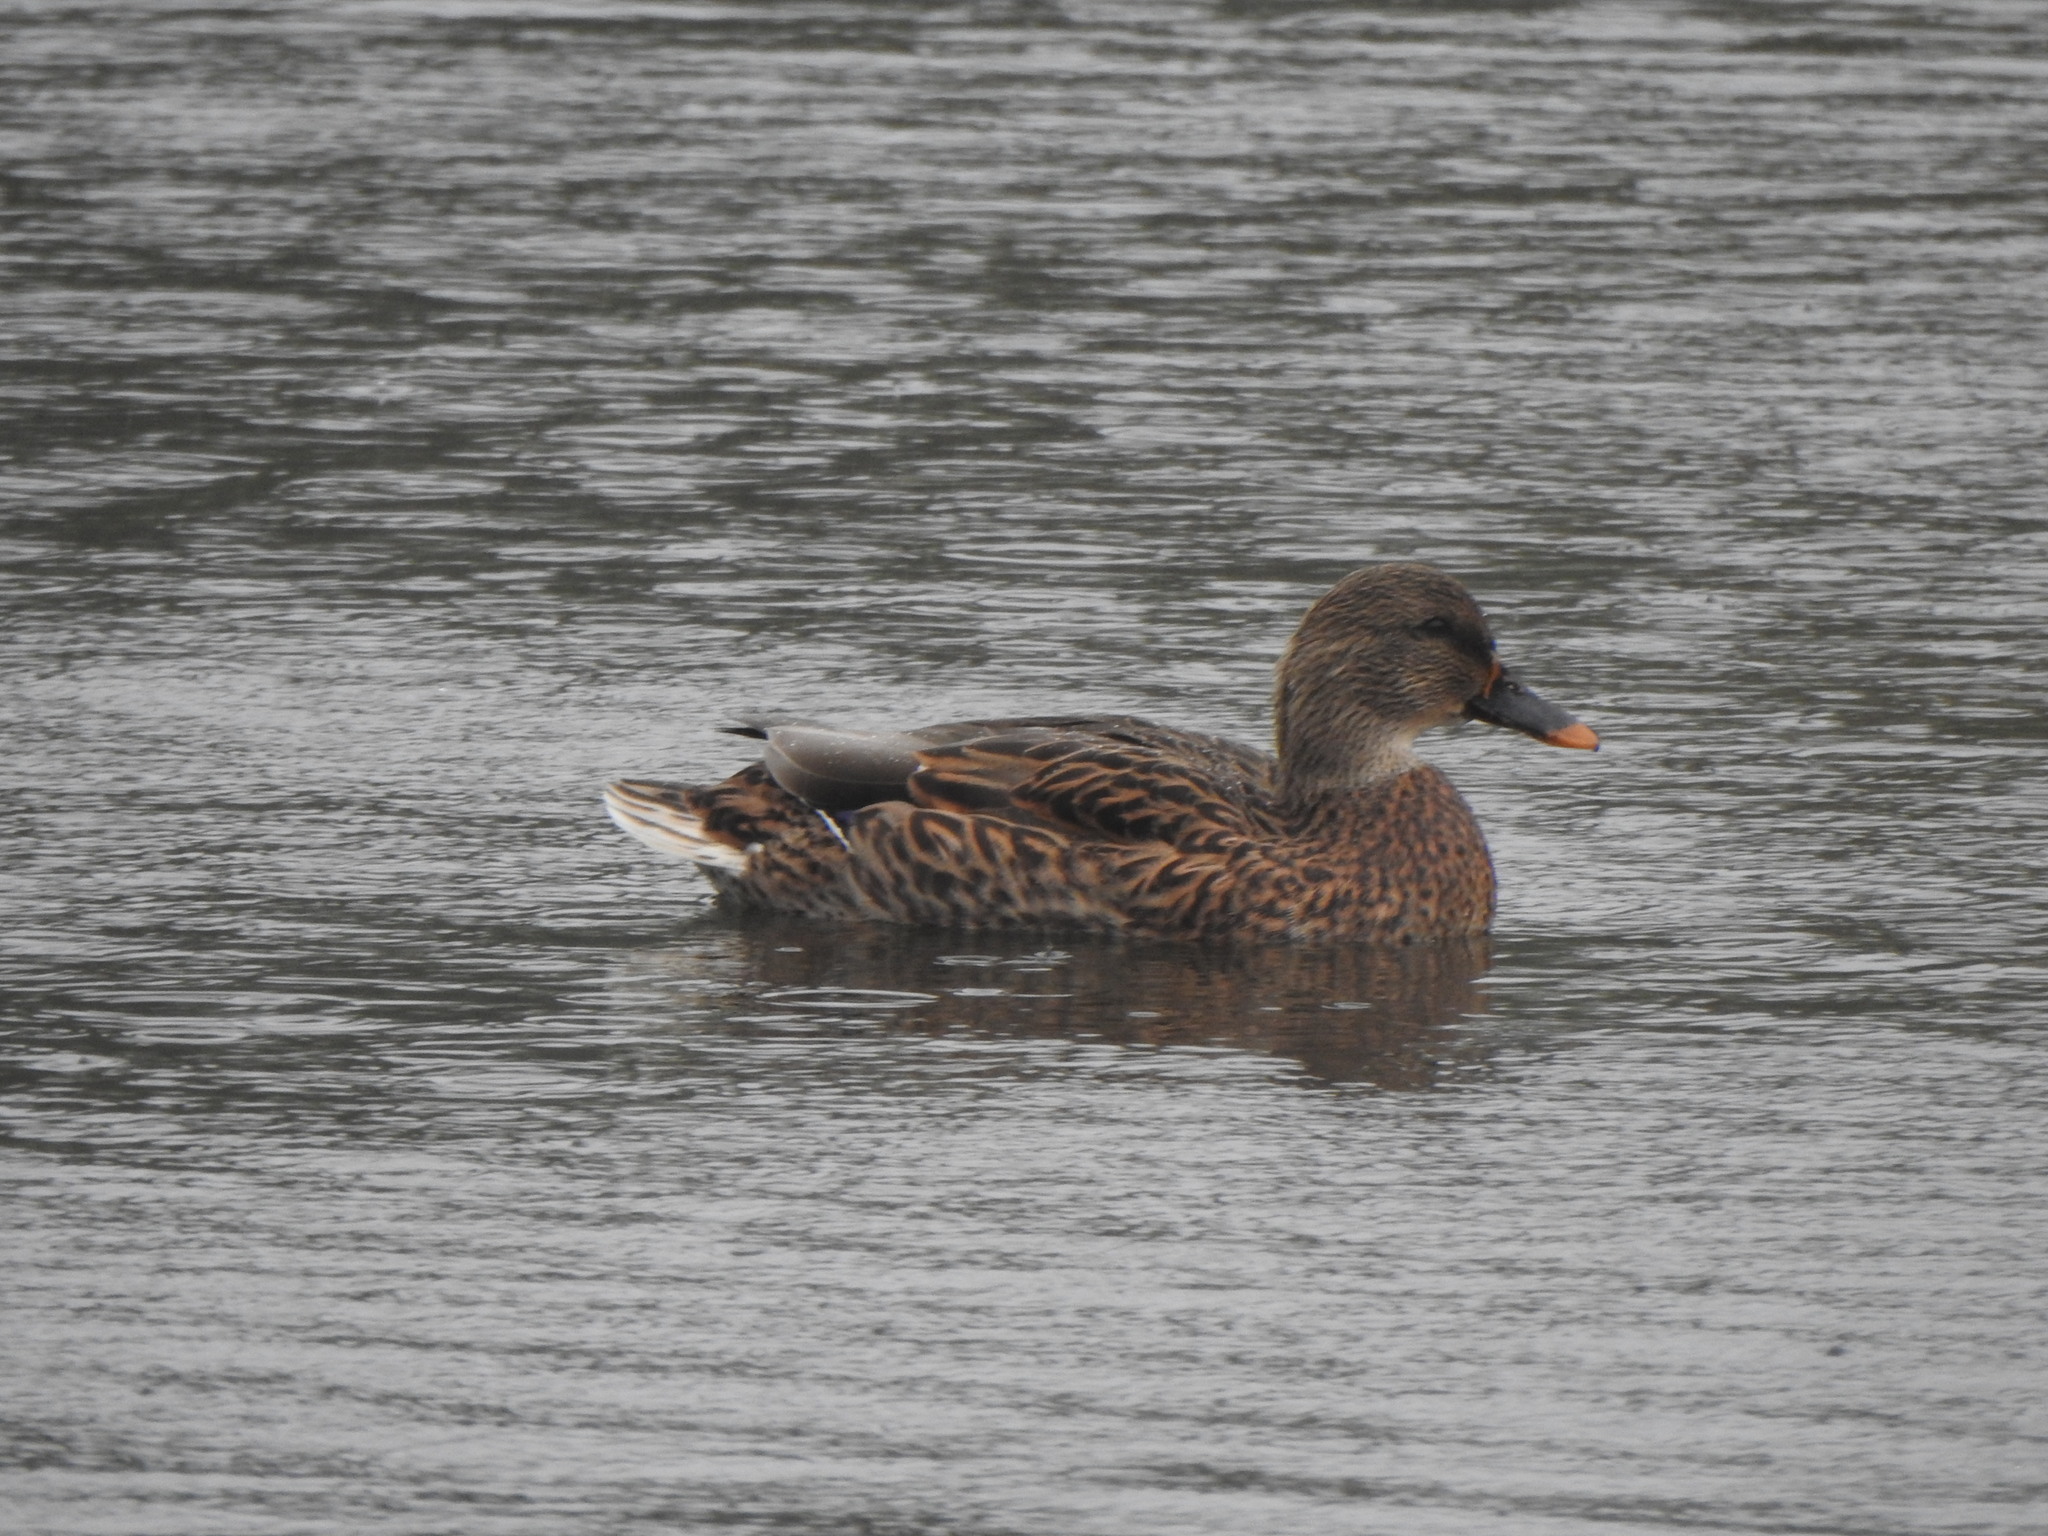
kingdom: Animalia
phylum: Chordata
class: Aves
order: Anseriformes
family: Anatidae
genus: Anas
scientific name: Anas platyrhynchos
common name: Mallard
